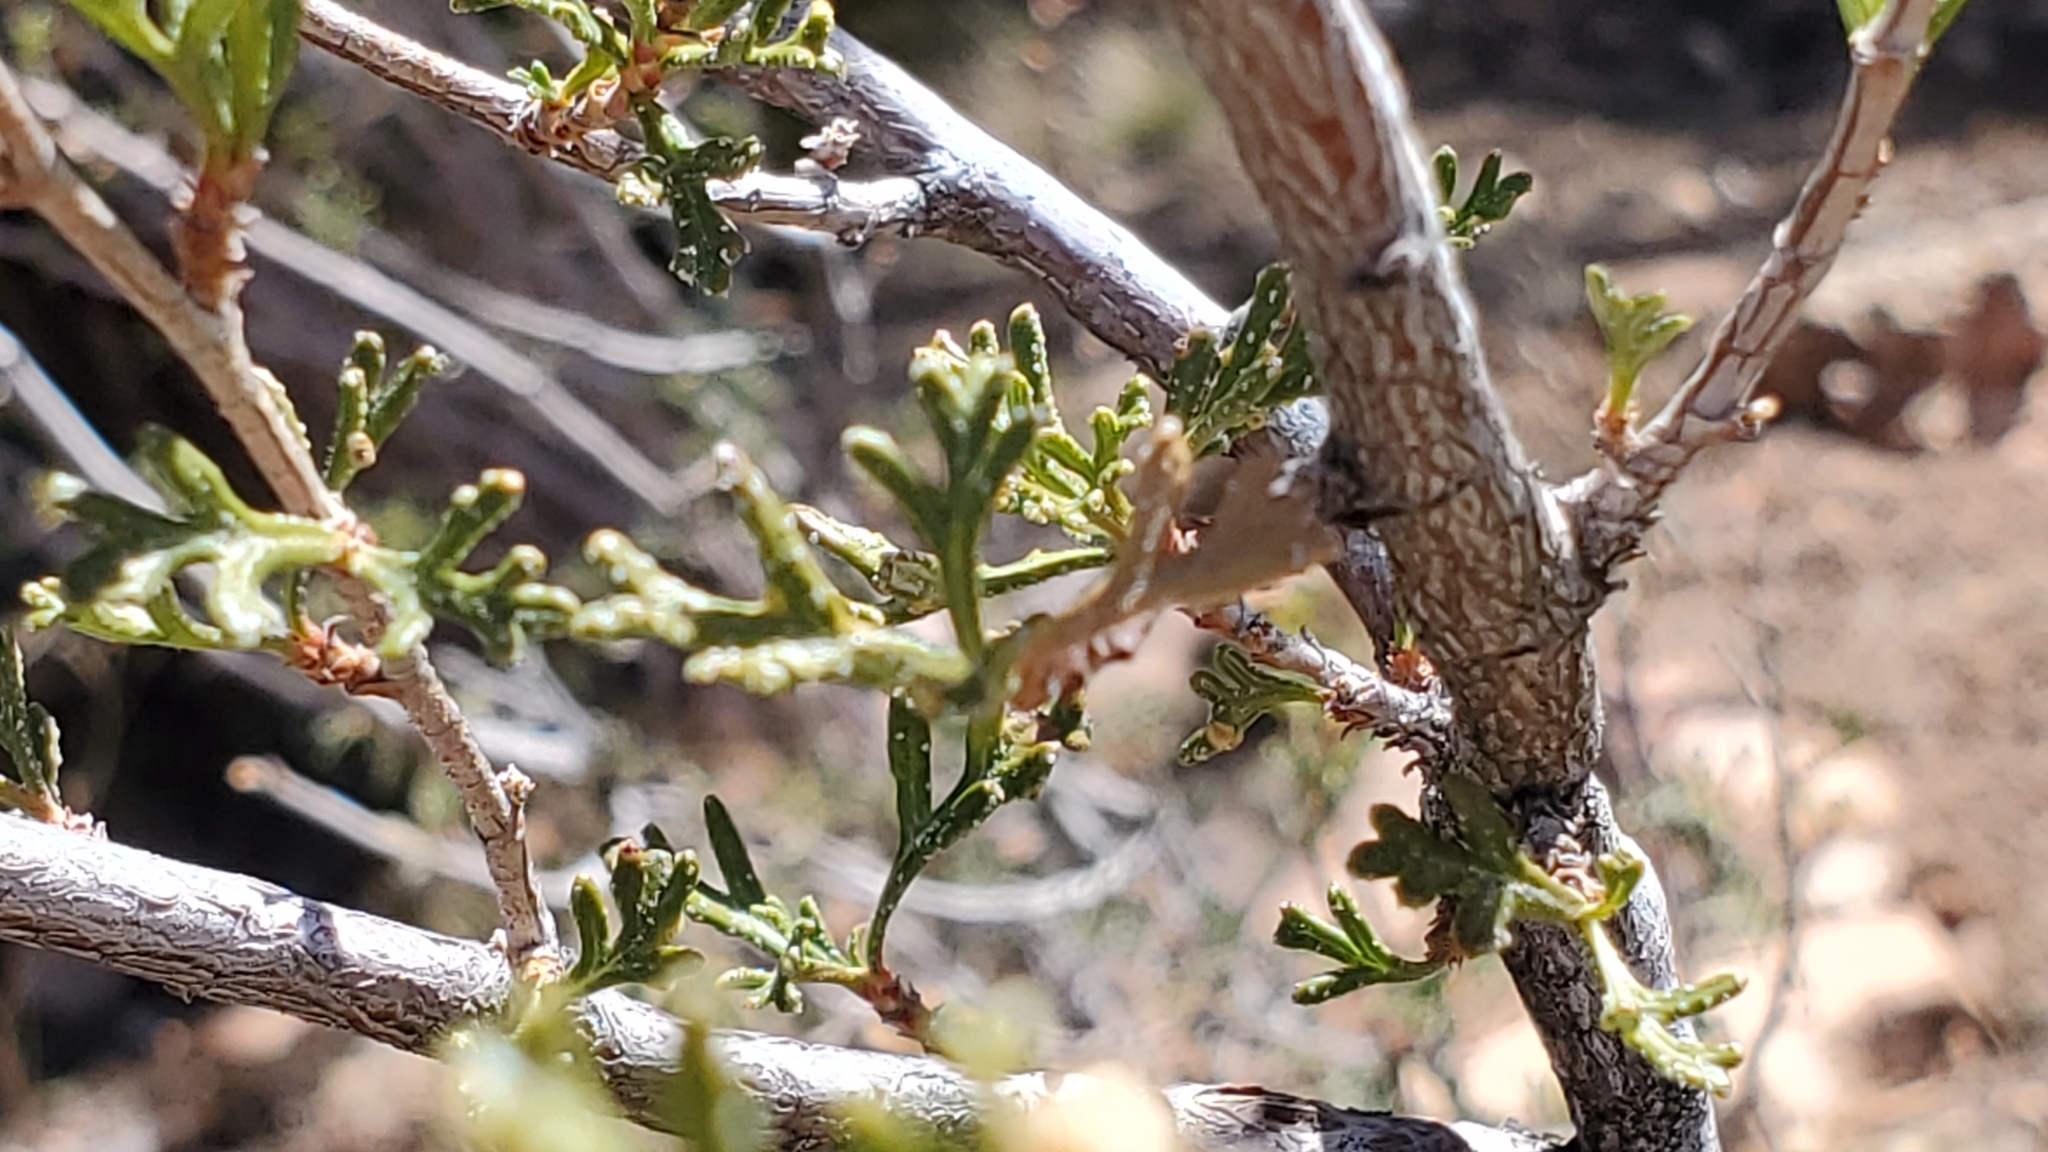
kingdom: Plantae
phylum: Tracheophyta
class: Magnoliopsida
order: Rosales
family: Rosaceae
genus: Purshia
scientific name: Purshia stansburiana
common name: Stansbury's cliffrose
